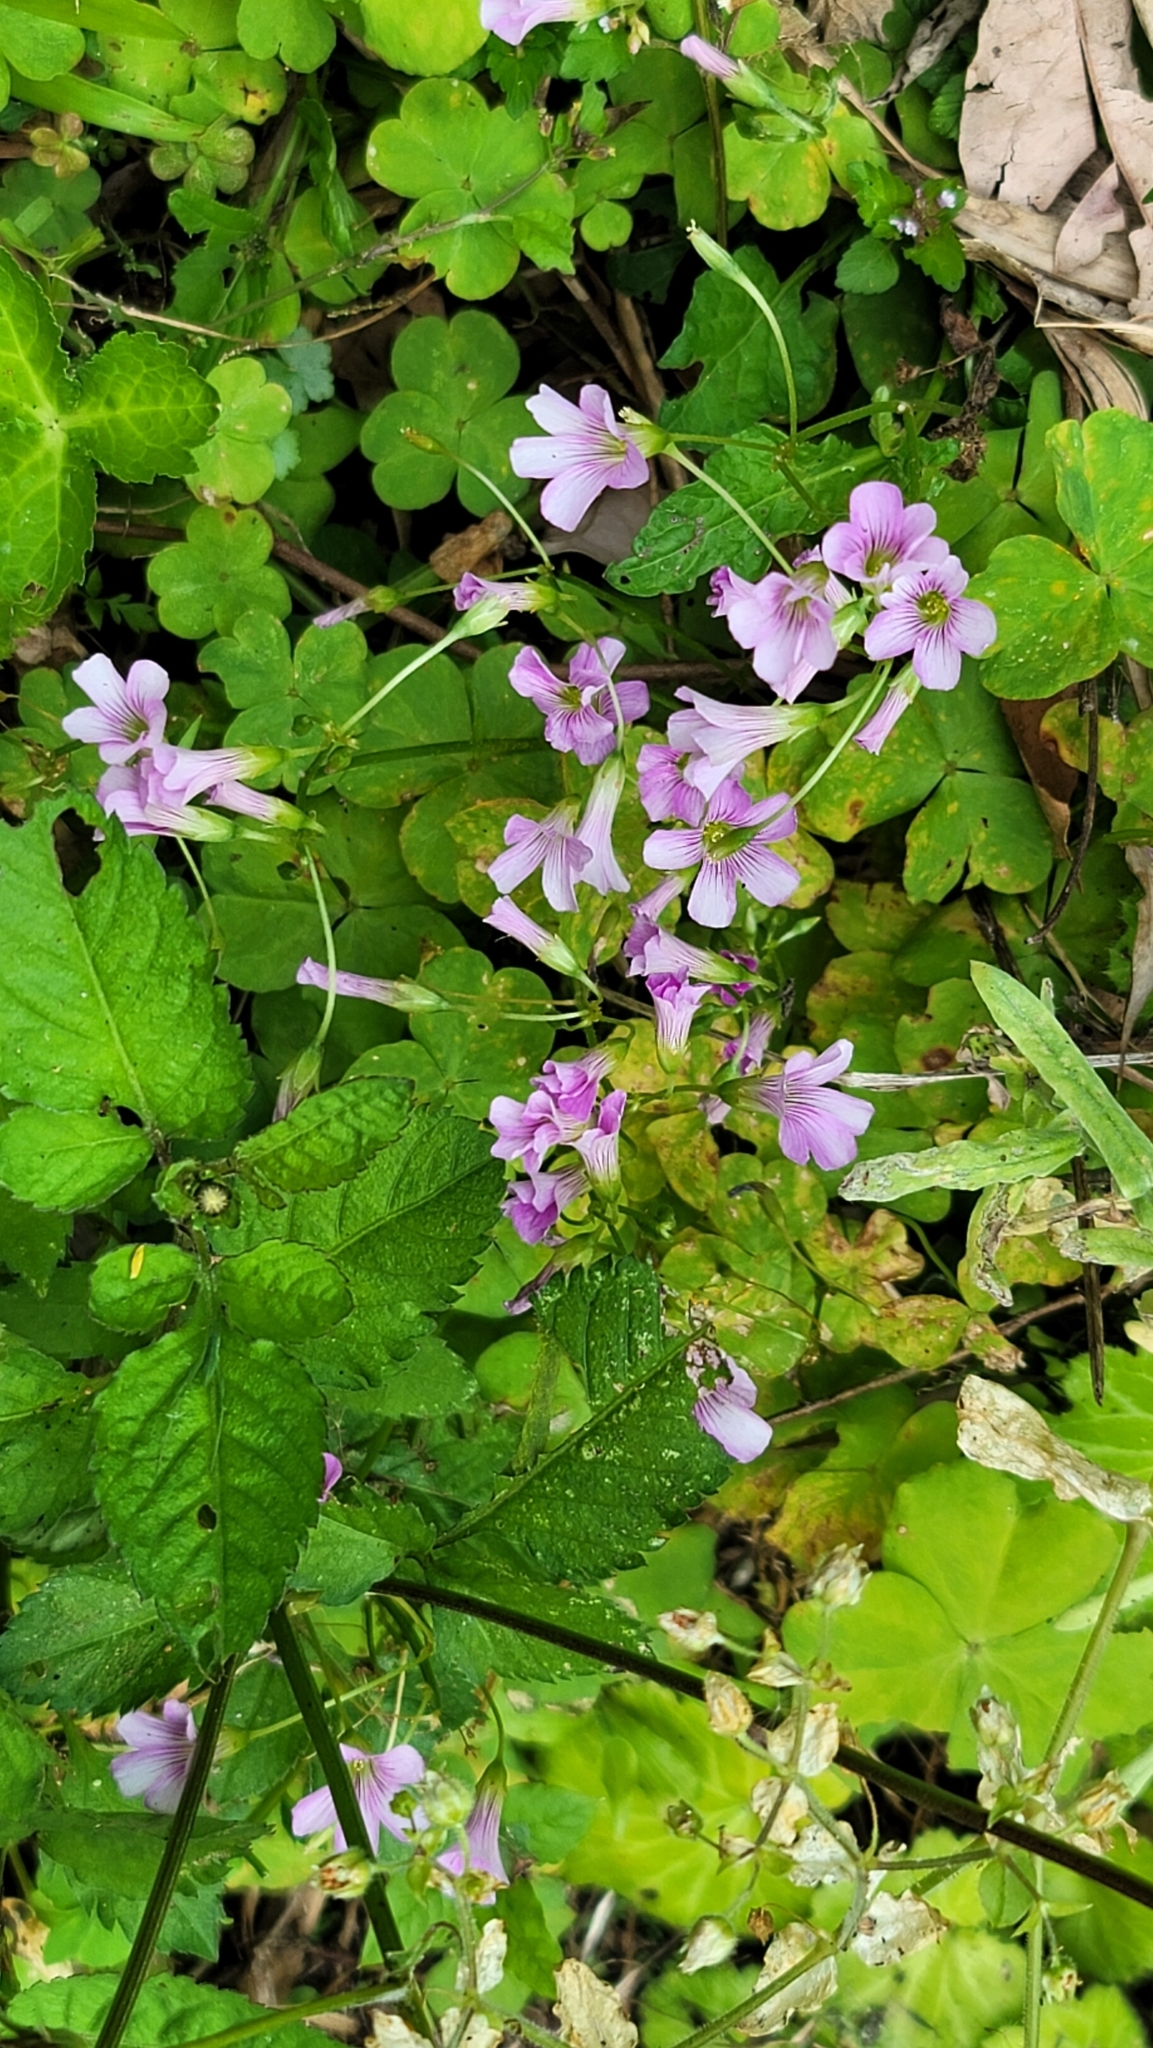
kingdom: Plantae
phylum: Tracheophyta
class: Magnoliopsida
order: Oxalidales
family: Oxalidaceae
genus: Oxalis
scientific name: Oxalis debilis
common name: Large-flowered pink-sorrel
